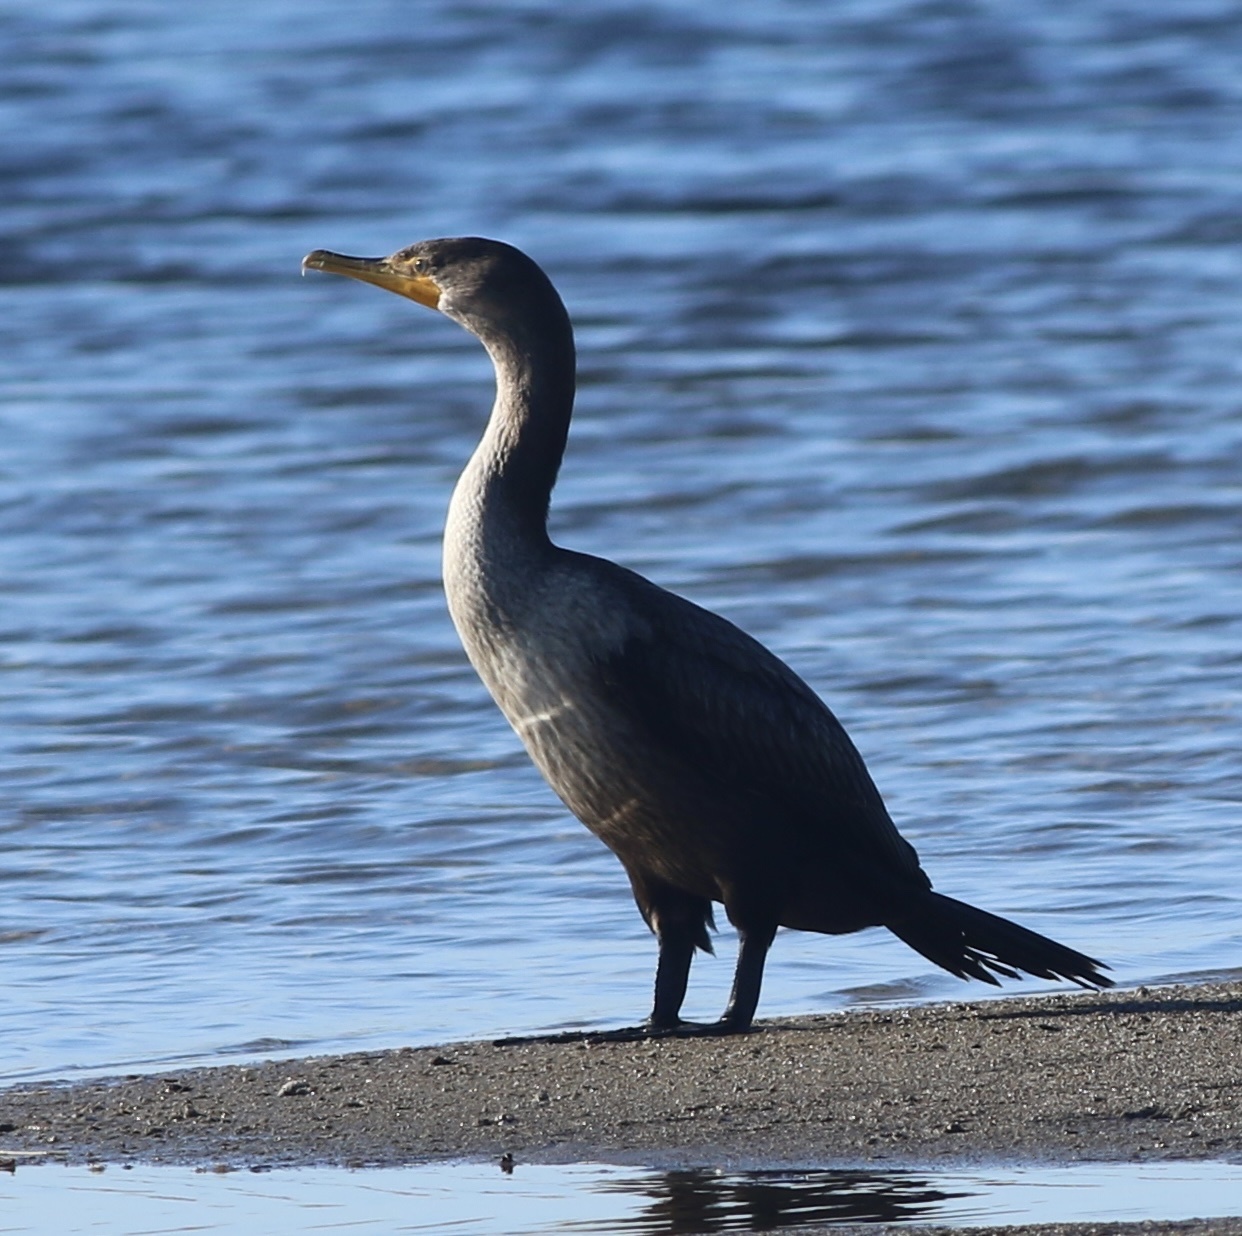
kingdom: Animalia
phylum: Chordata
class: Aves
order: Suliformes
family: Phalacrocoracidae
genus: Phalacrocorax
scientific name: Phalacrocorax auritus
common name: Double-crested cormorant
